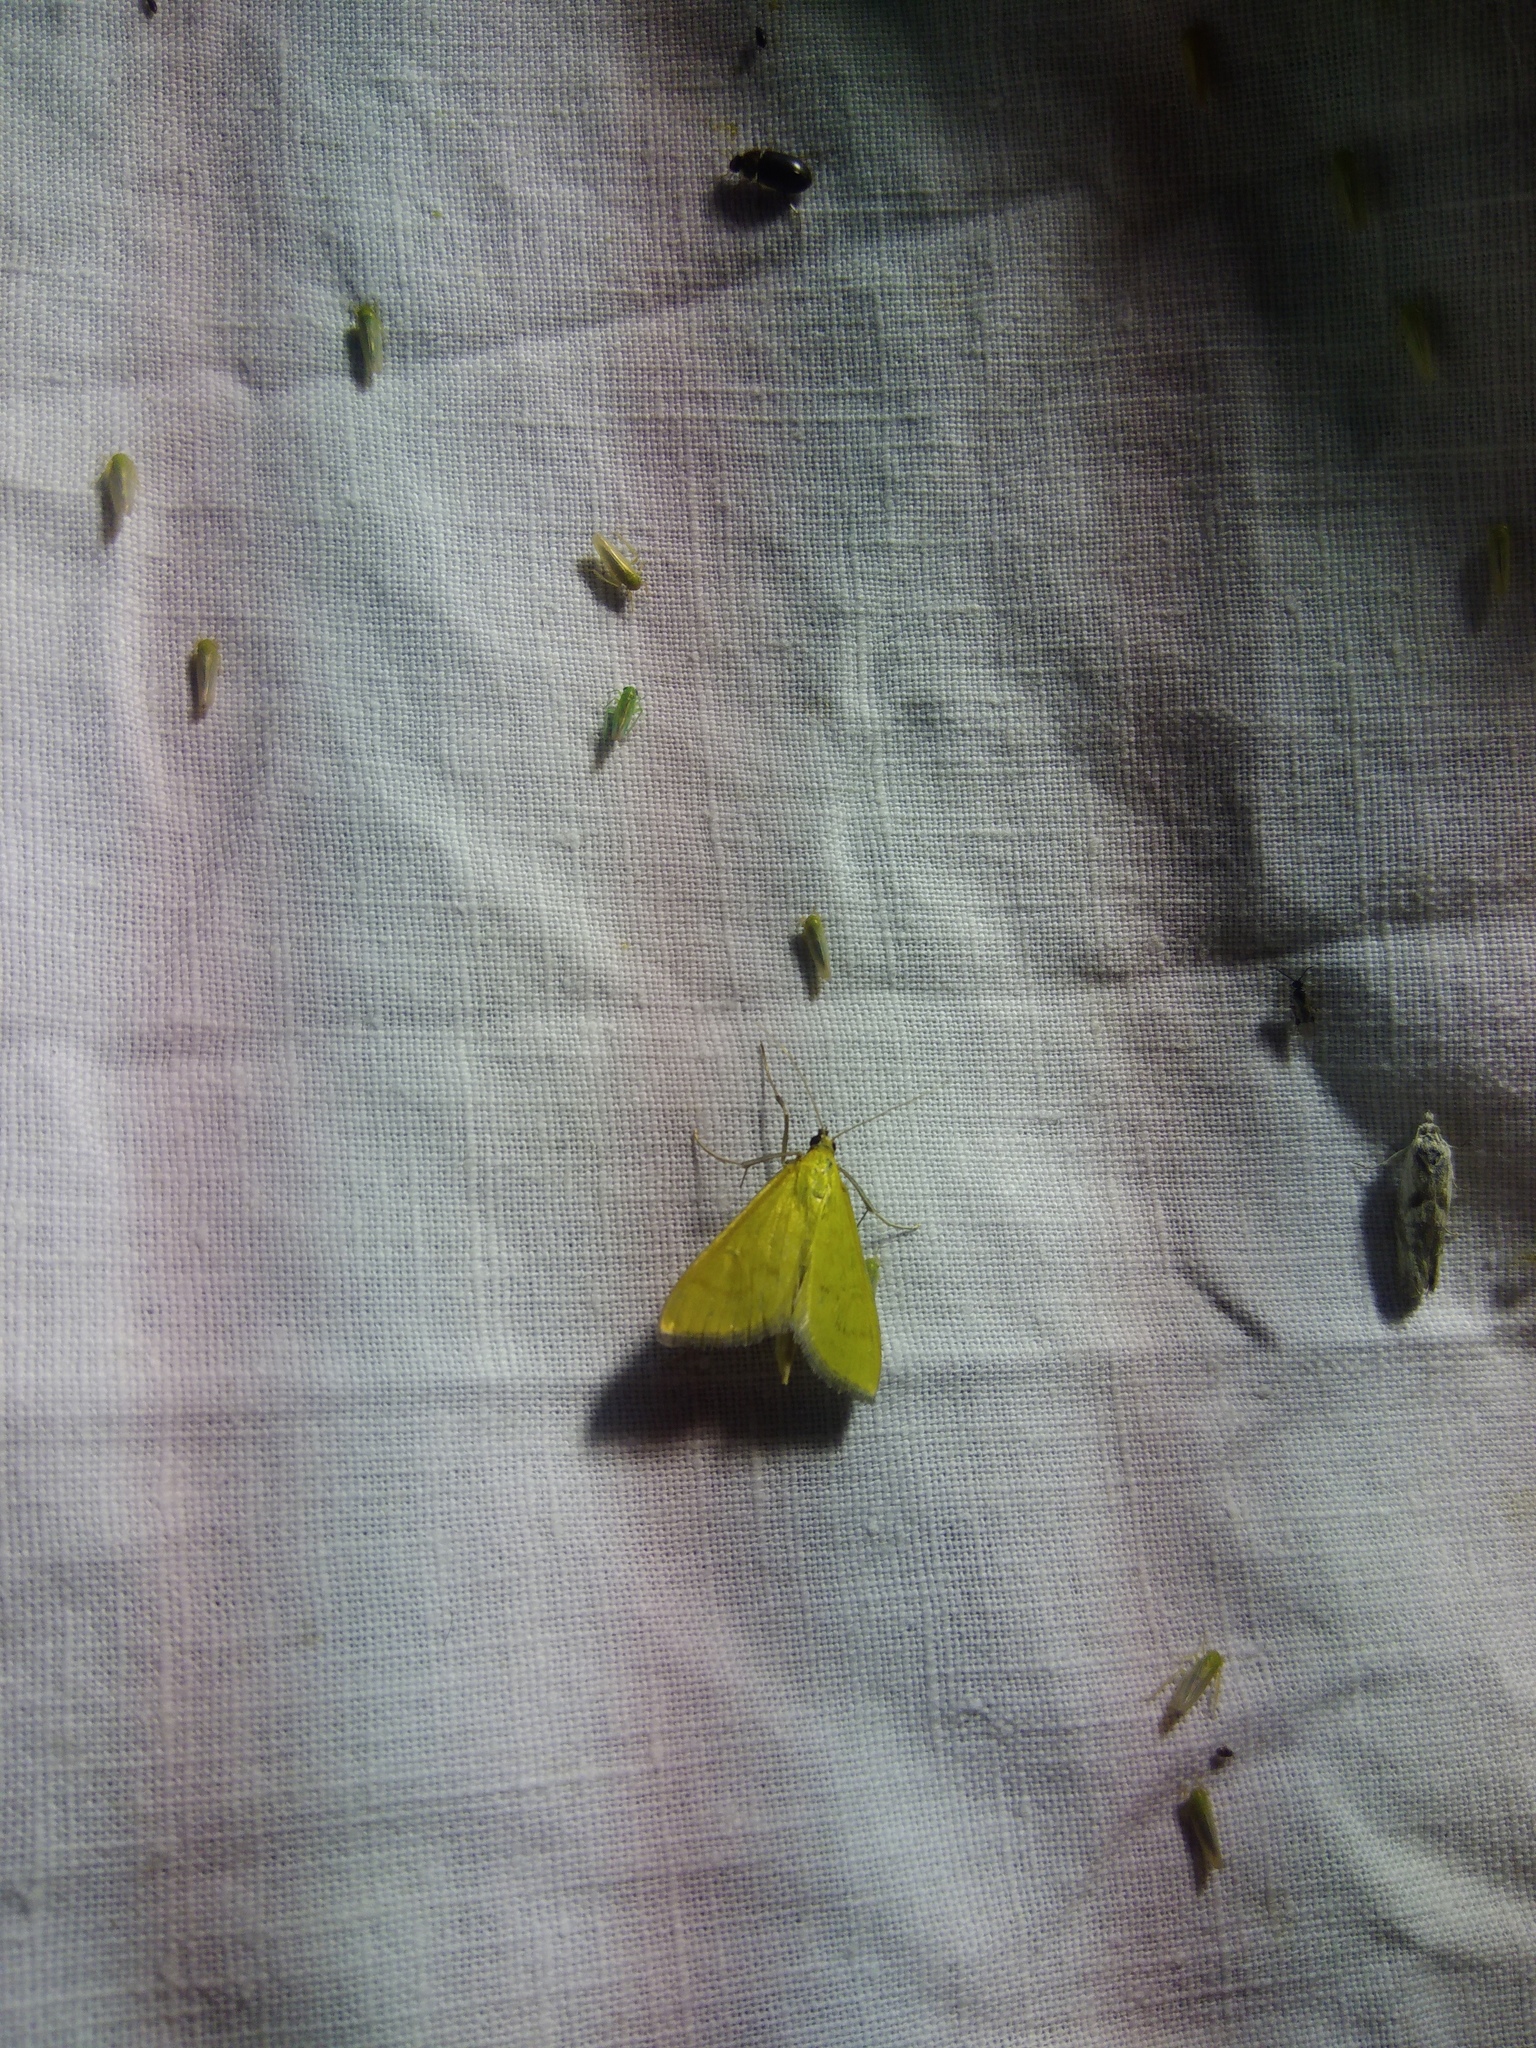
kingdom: Animalia
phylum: Arthropoda
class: Insecta
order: Lepidoptera
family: Crambidae
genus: Mecyna
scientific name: Mecyna flavalis
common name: Yellow pearl
